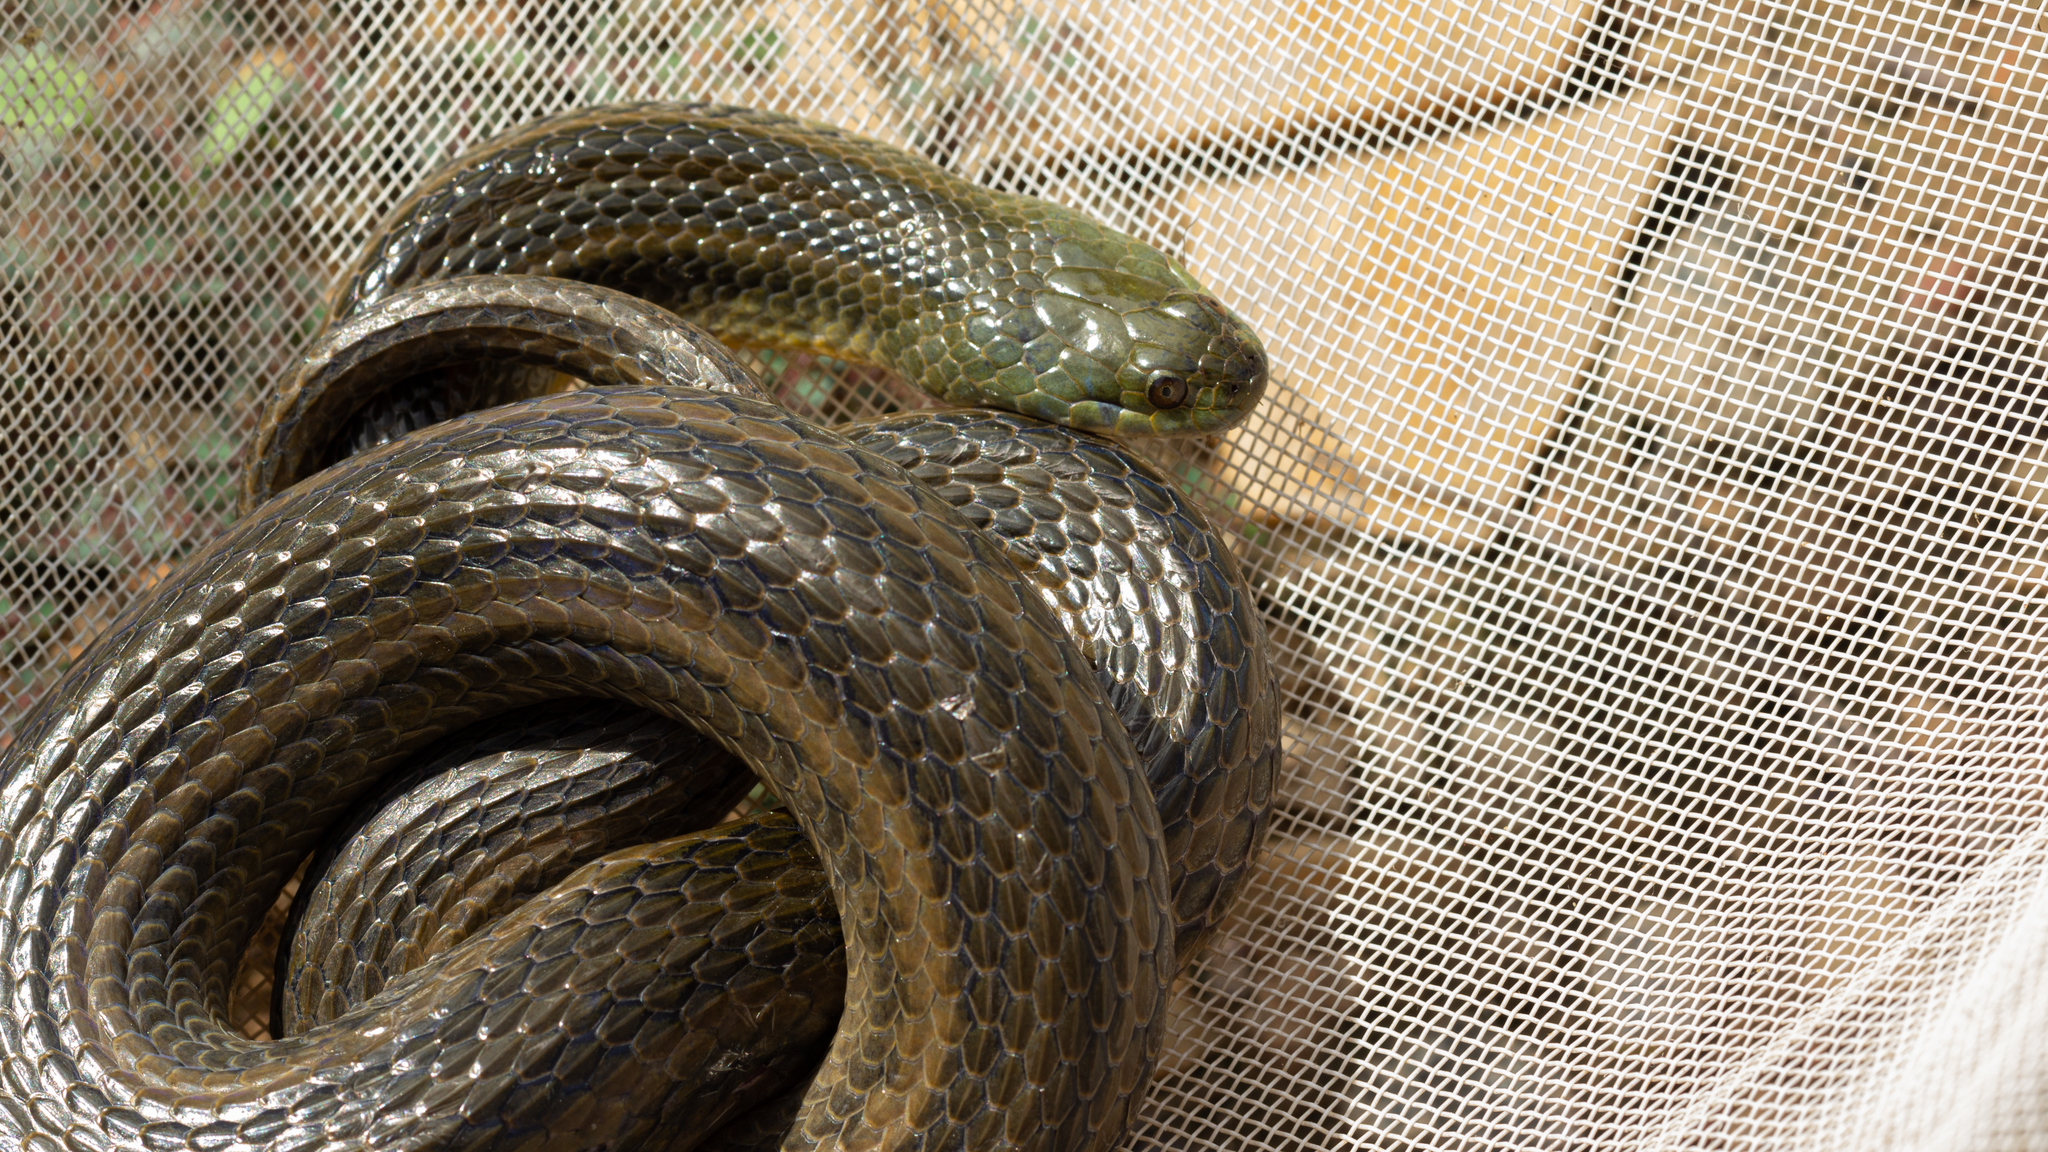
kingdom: Animalia
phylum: Chordata
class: Squamata
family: Colubridae
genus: Helicops
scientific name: Helicops modestus
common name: Olive keelback
